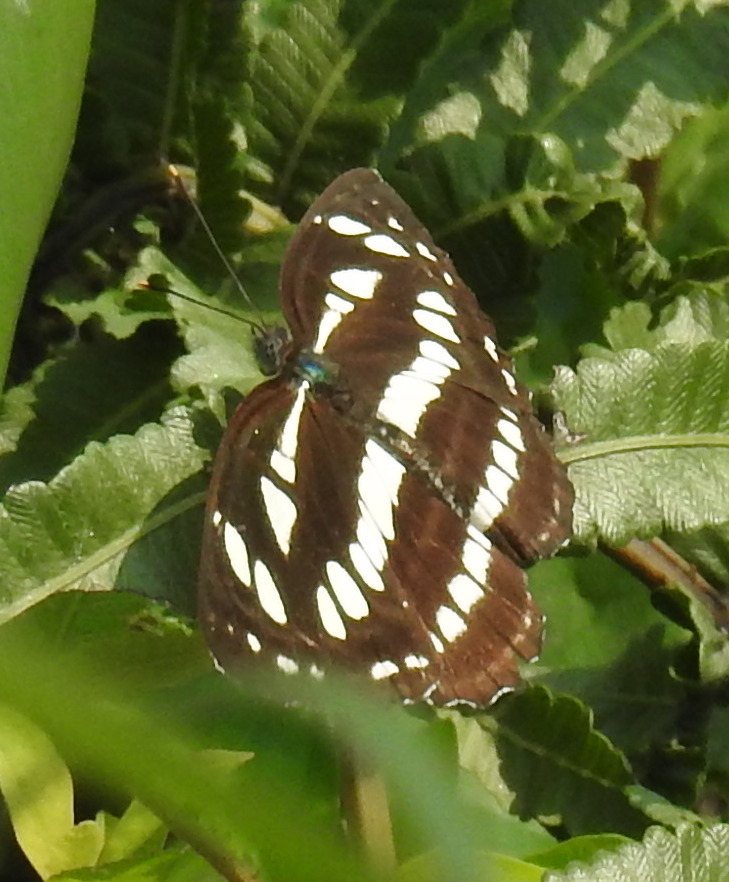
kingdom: Animalia
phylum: Arthropoda
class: Insecta
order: Lepidoptera
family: Nymphalidae
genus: Neptis
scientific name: Neptis hylas
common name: Common sailer
